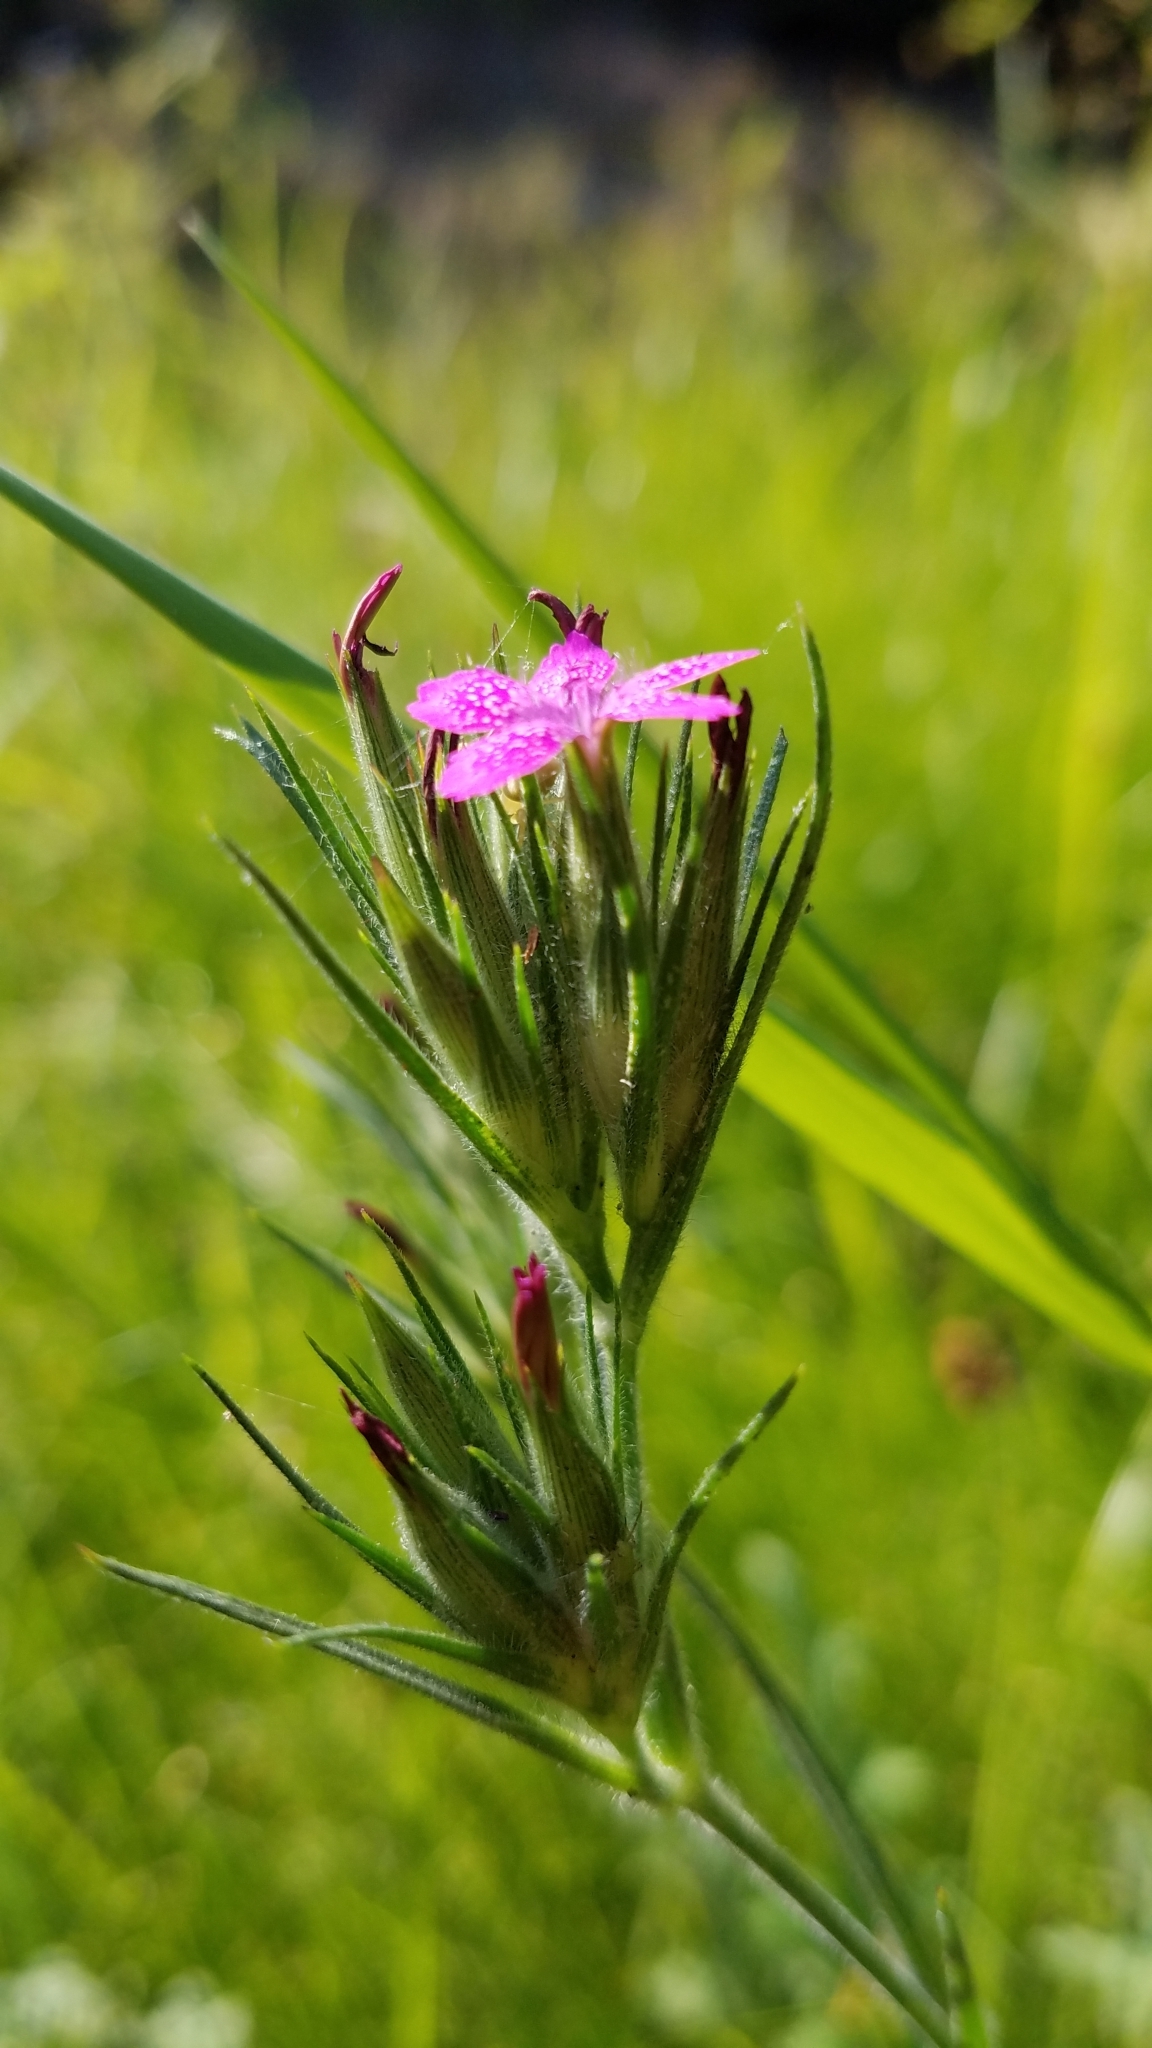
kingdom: Plantae
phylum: Tracheophyta
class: Magnoliopsida
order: Caryophyllales
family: Caryophyllaceae
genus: Dianthus
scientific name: Dianthus armeria
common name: Deptford pink
